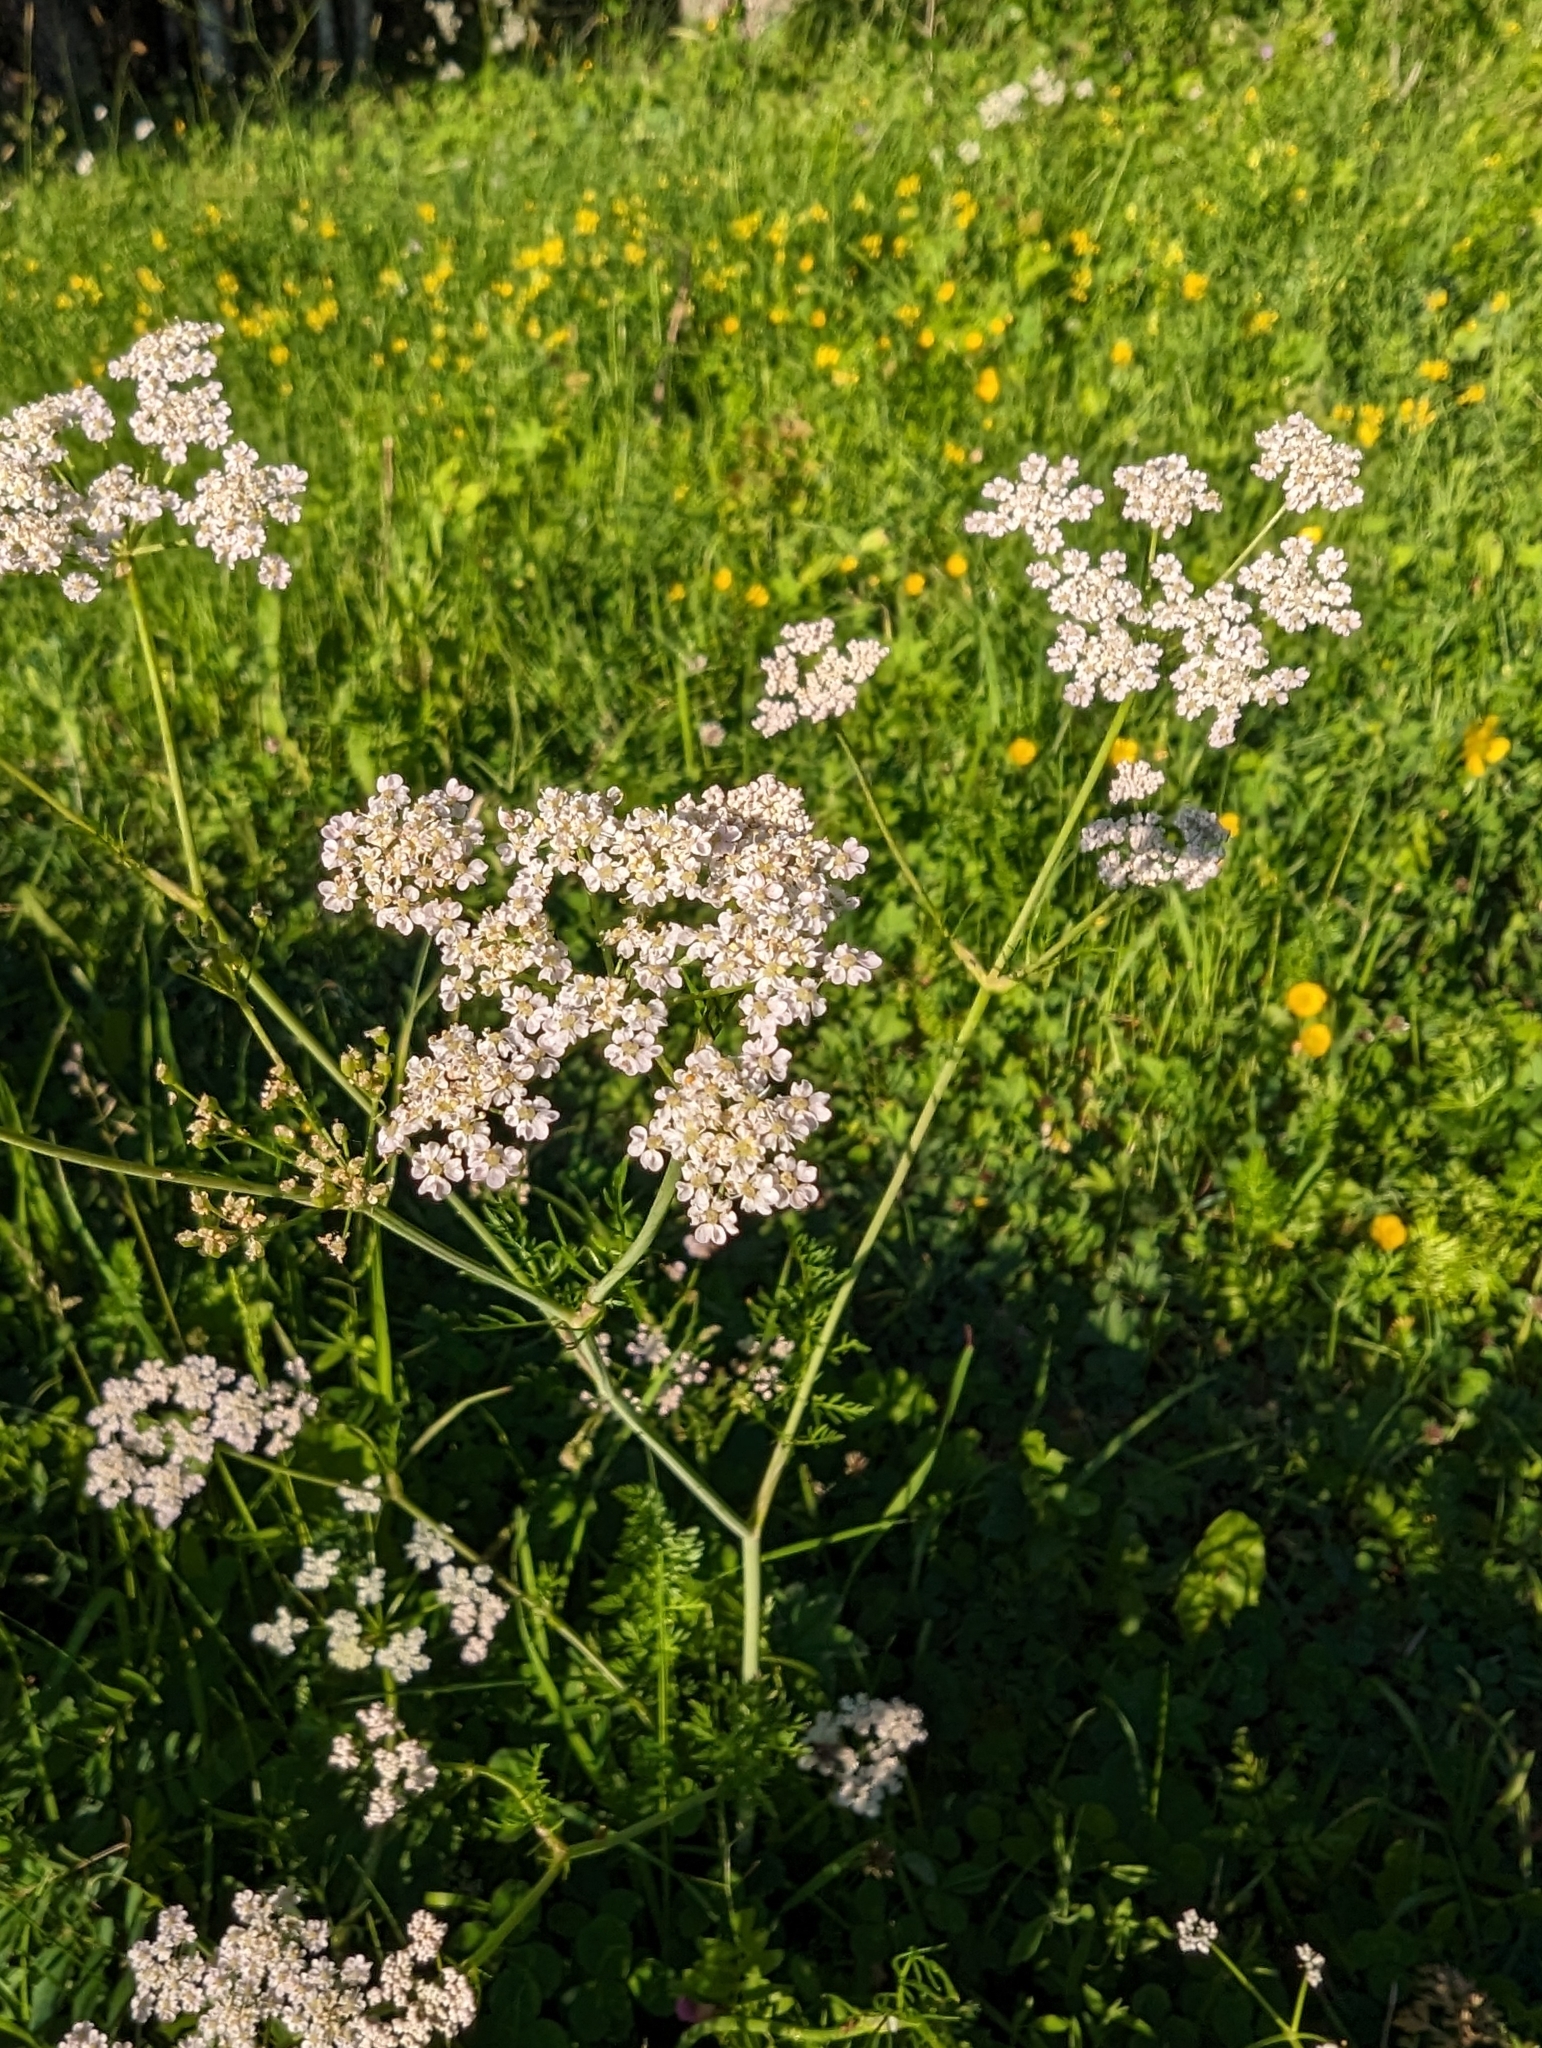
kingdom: Plantae
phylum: Tracheophyta
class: Magnoliopsida
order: Apiales
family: Apiaceae
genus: Anthriscus
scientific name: Anthriscus sylvestris
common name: Cow parsley
